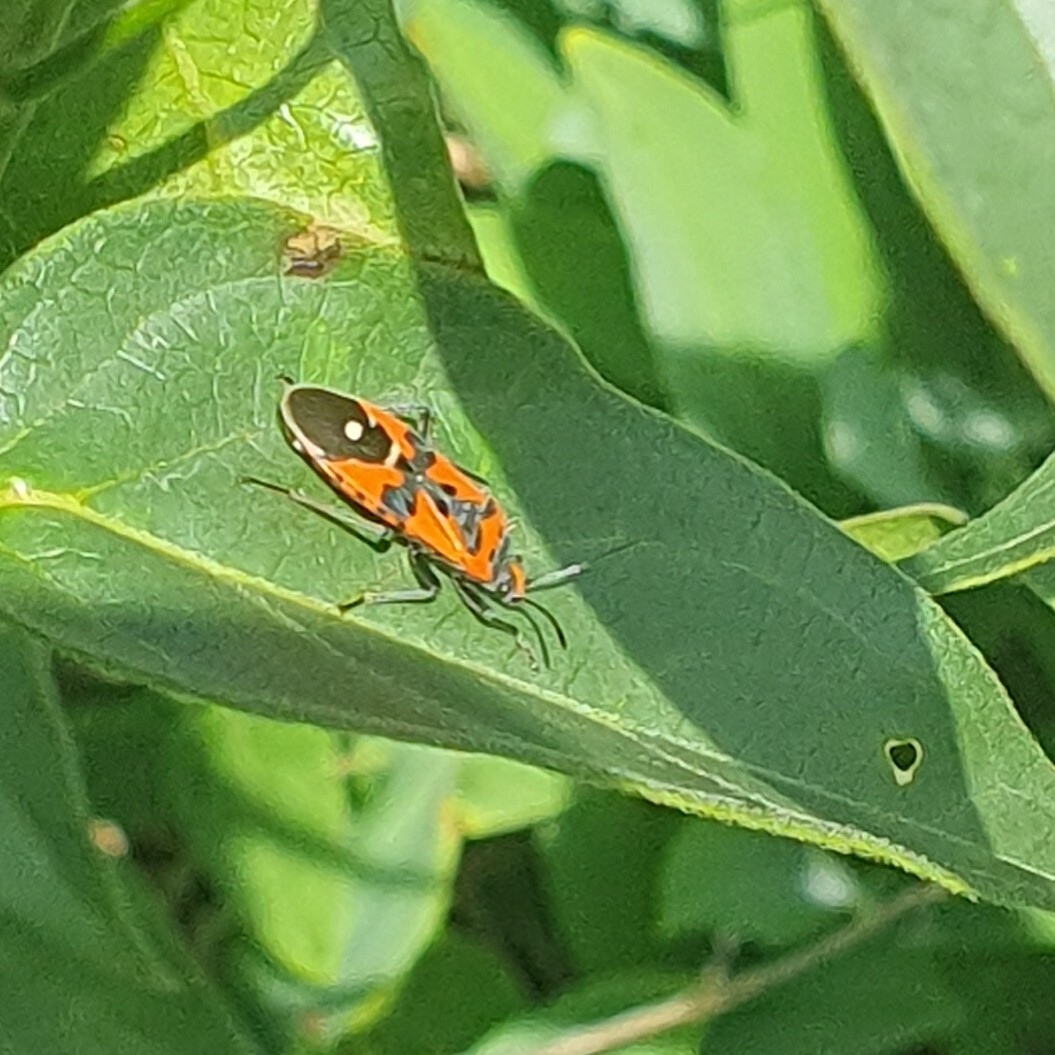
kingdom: Animalia
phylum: Arthropoda
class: Insecta
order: Hemiptera
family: Lygaeidae
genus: Lygaeus
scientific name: Lygaeus equestris
